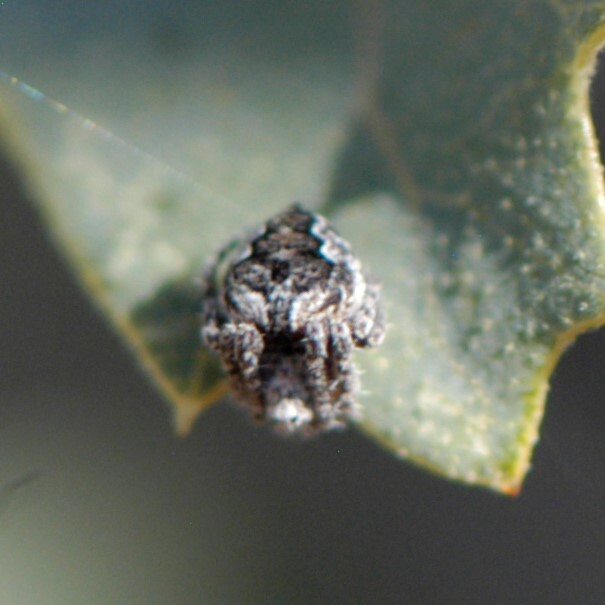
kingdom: Animalia
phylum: Arthropoda
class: Arachnida
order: Araneae
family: Araneidae
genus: Eustala
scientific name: Eustala
